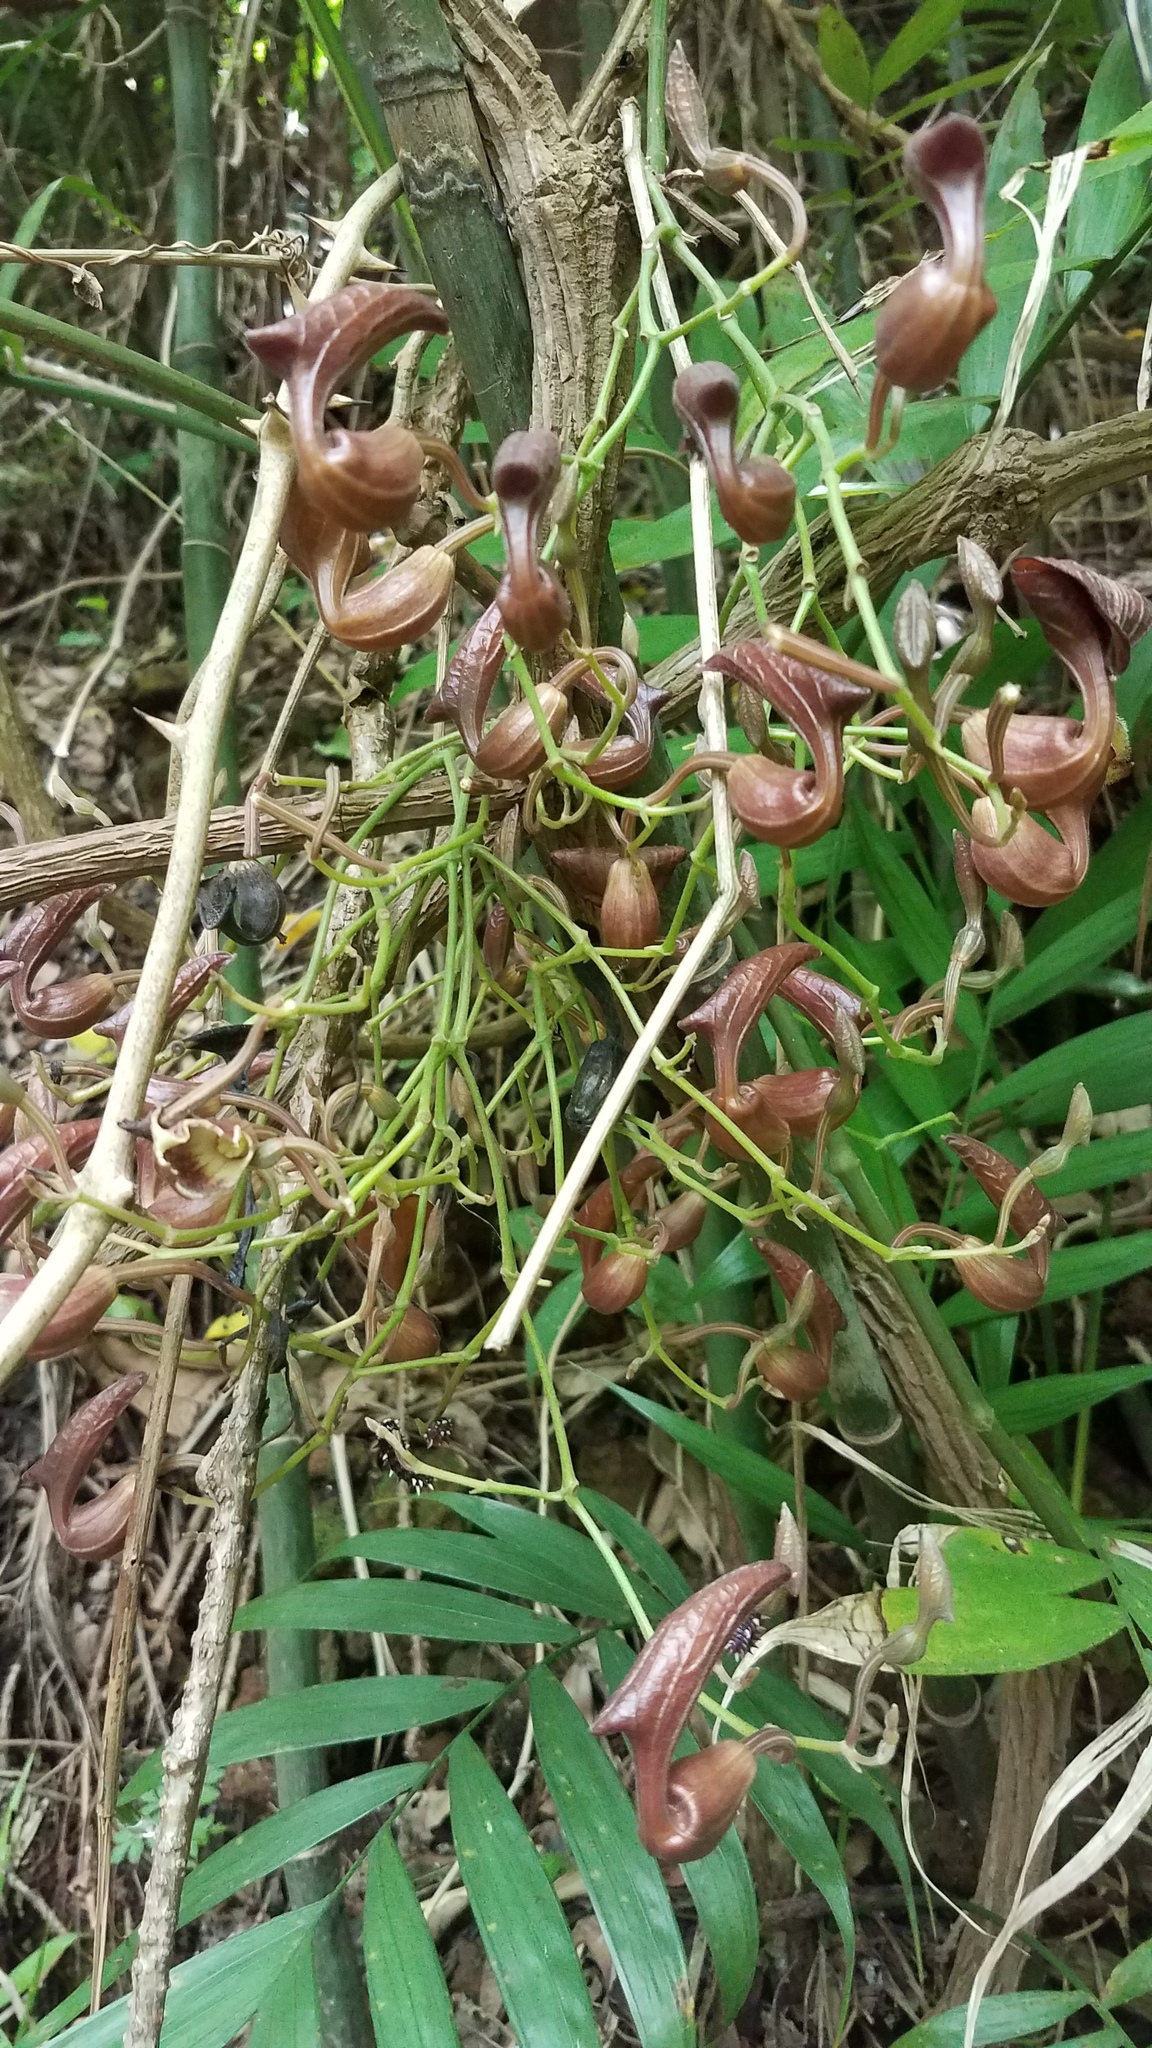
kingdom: Plantae
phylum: Tracheophyta
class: Magnoliopsida
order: Piperales
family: Aristolochiaceae
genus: Aristolochia
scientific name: Aristolochia maxima
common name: Florida dutchman's pipe
